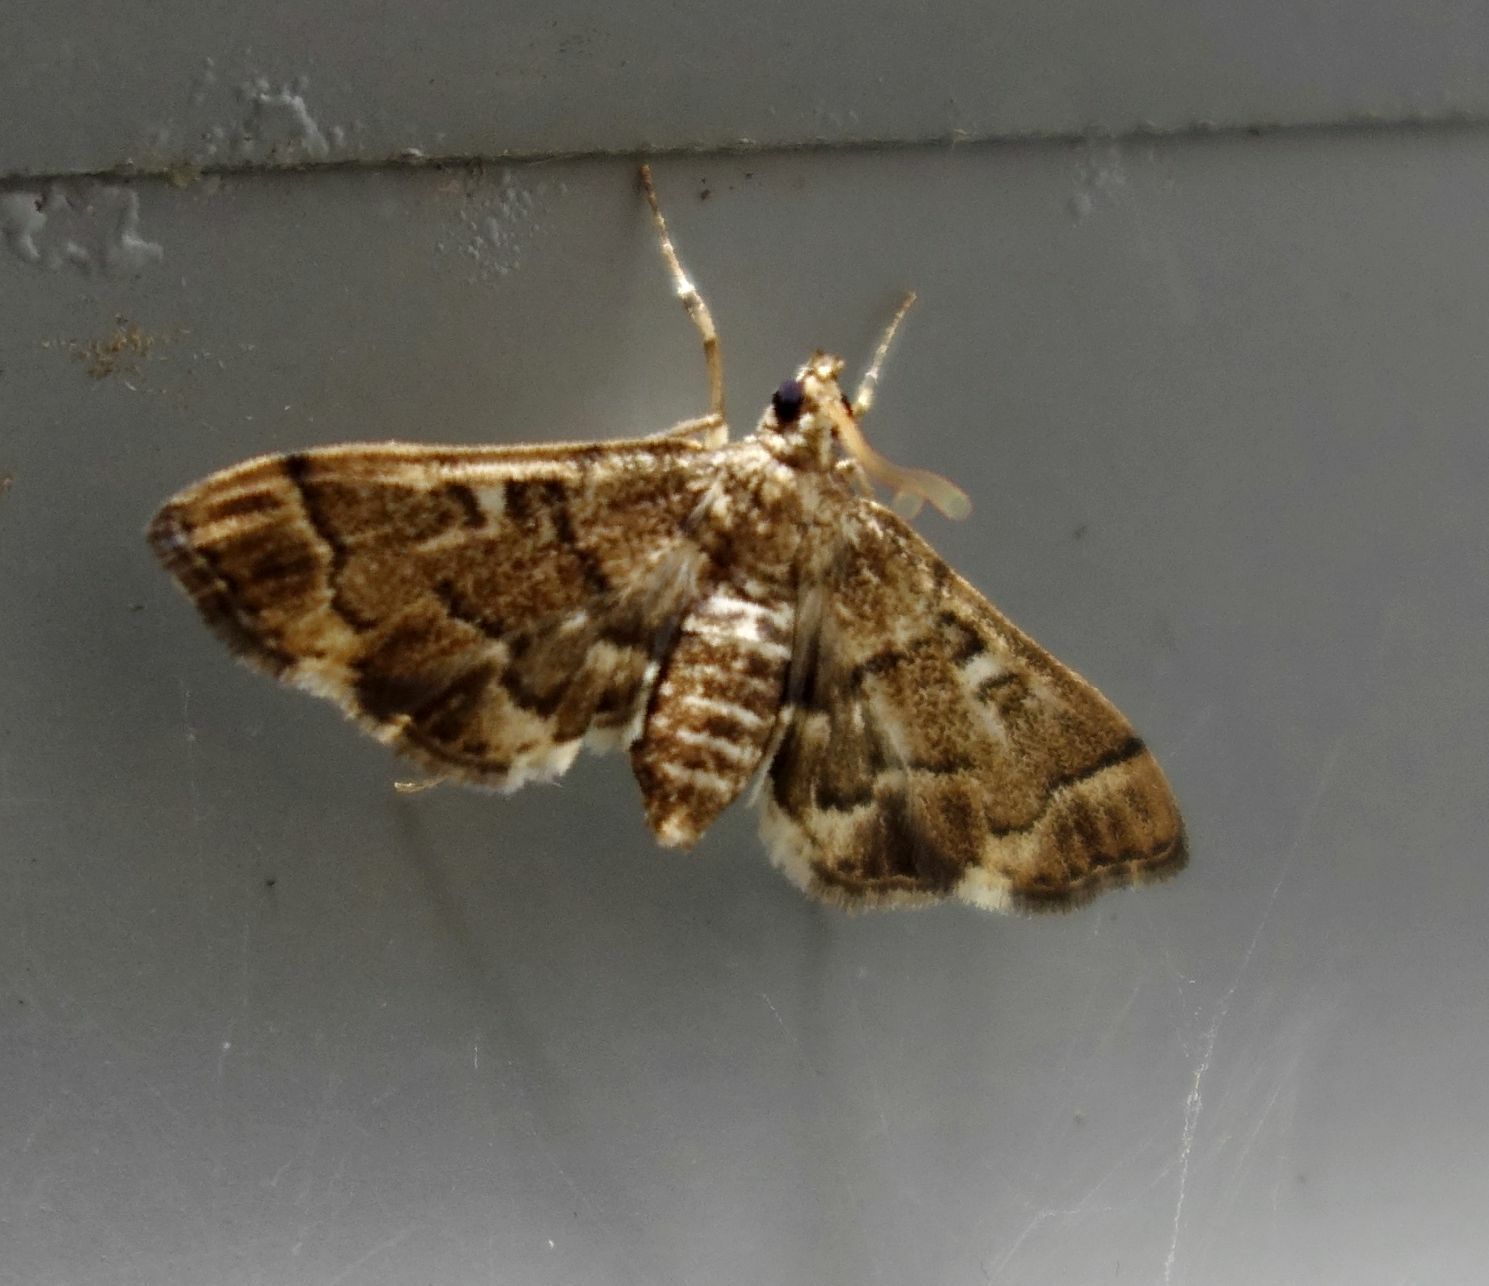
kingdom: Animalia
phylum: Arthropoda
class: Insecta
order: Lepidoptera
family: Crambidae
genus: Nacoleia
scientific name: Nacoleia rhoeoalis
